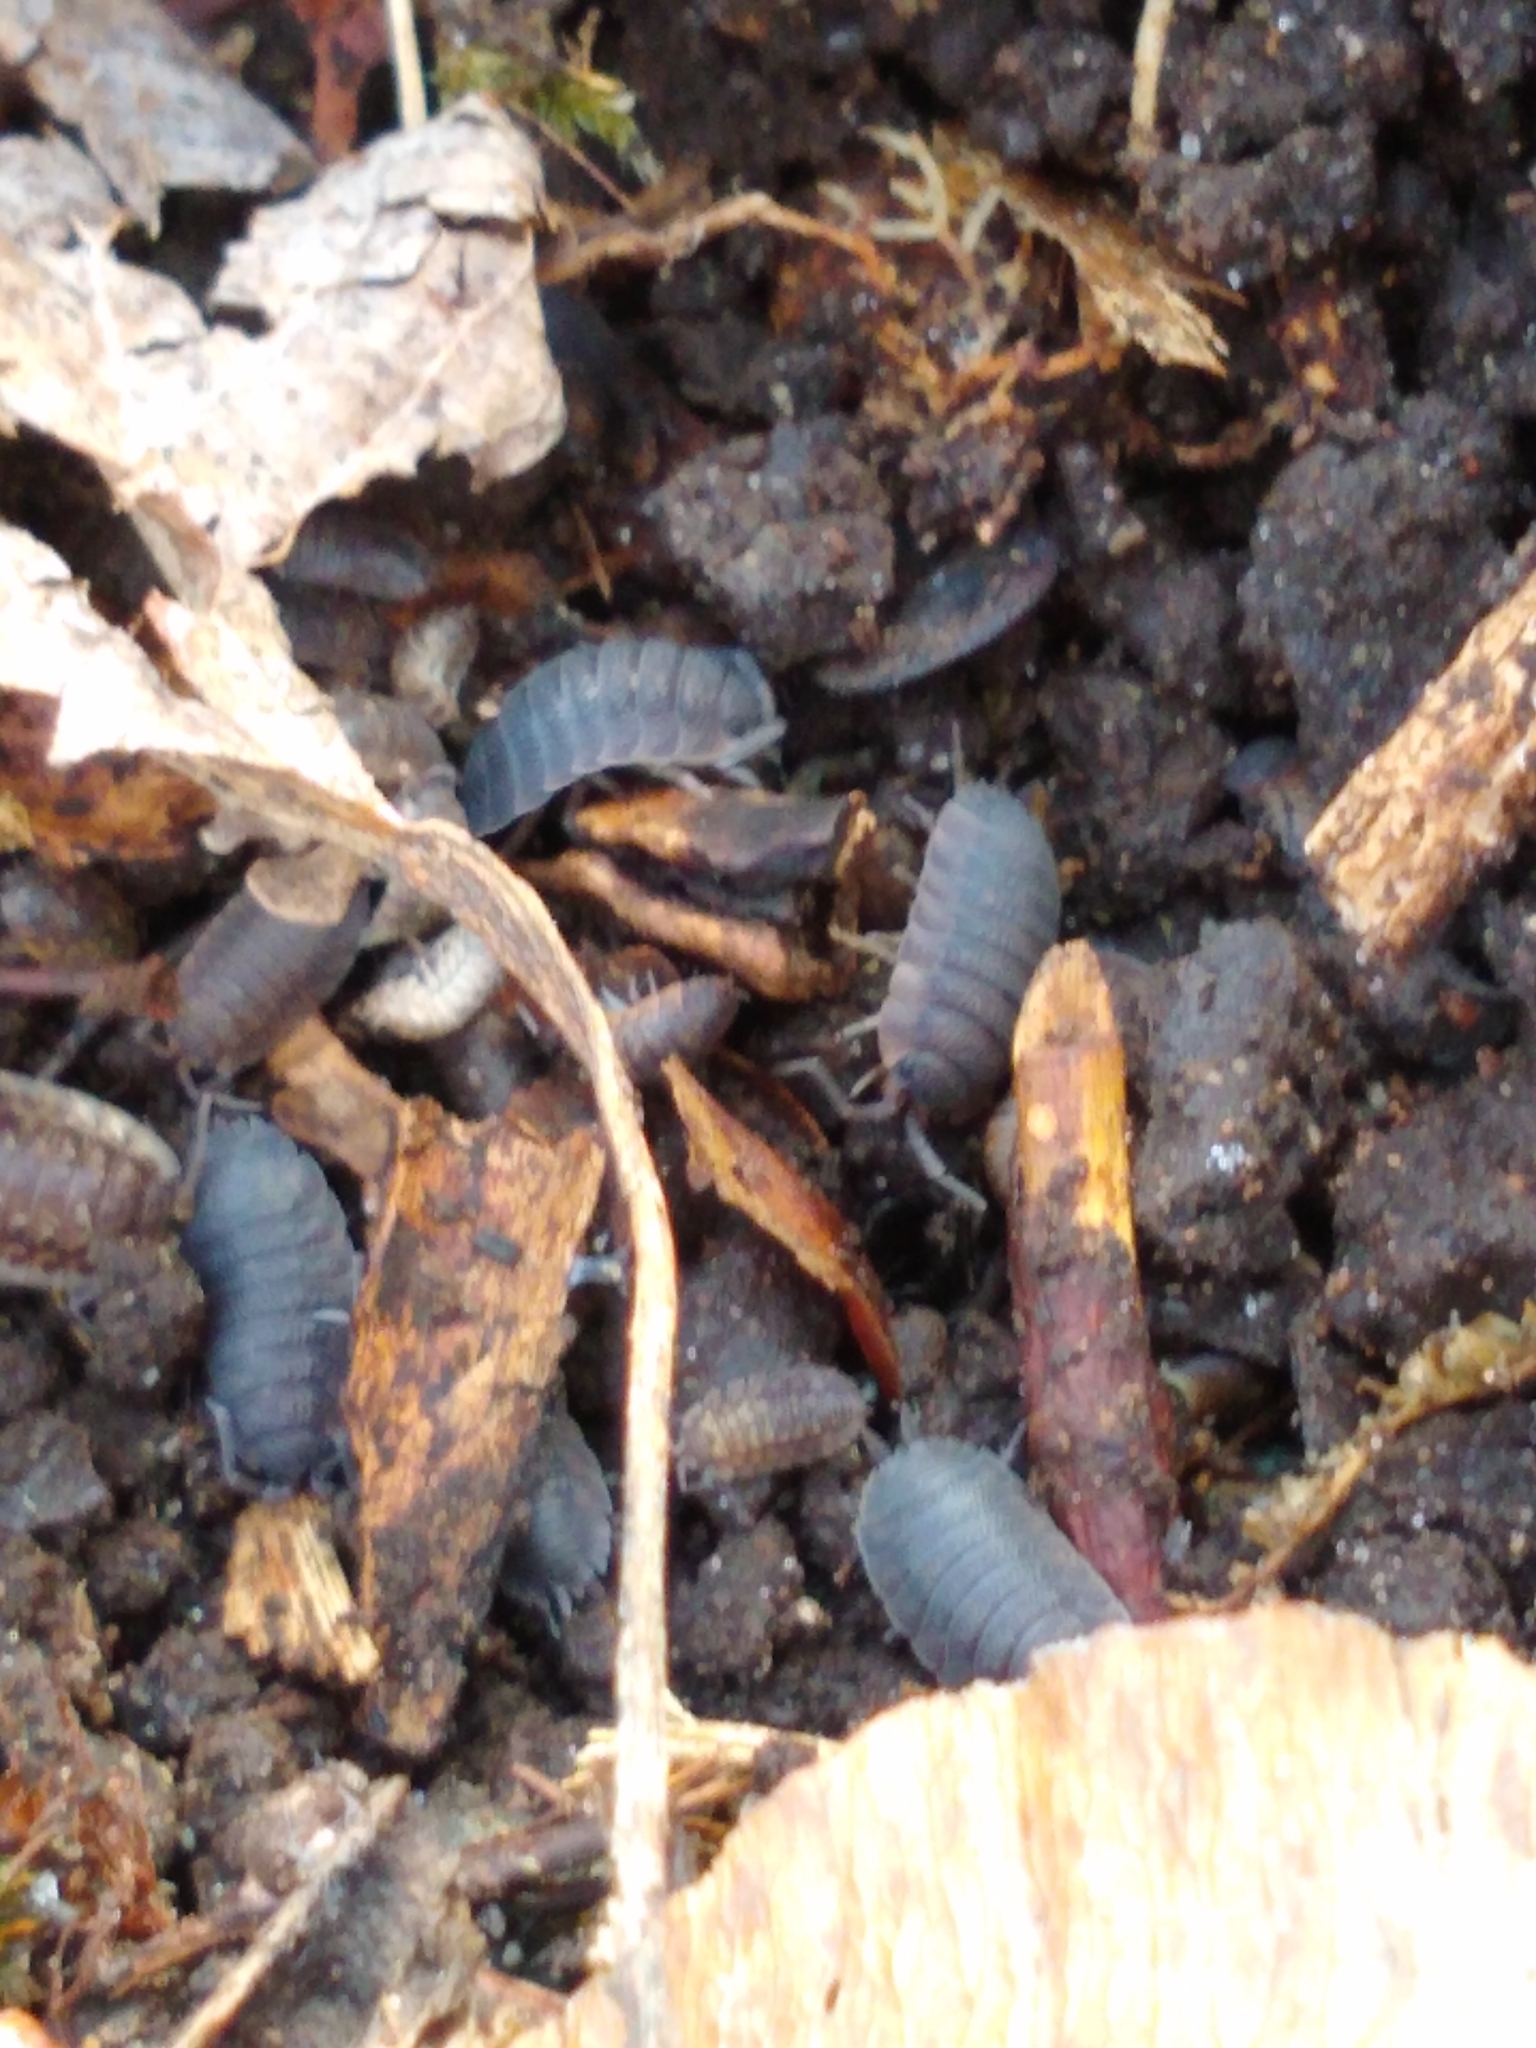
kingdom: Animalia
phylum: Arthropoda
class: Malacostraca
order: Isopoda
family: Porcellionidae
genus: Porcellio
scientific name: Porcellio scaber
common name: Common rough woodlouse
